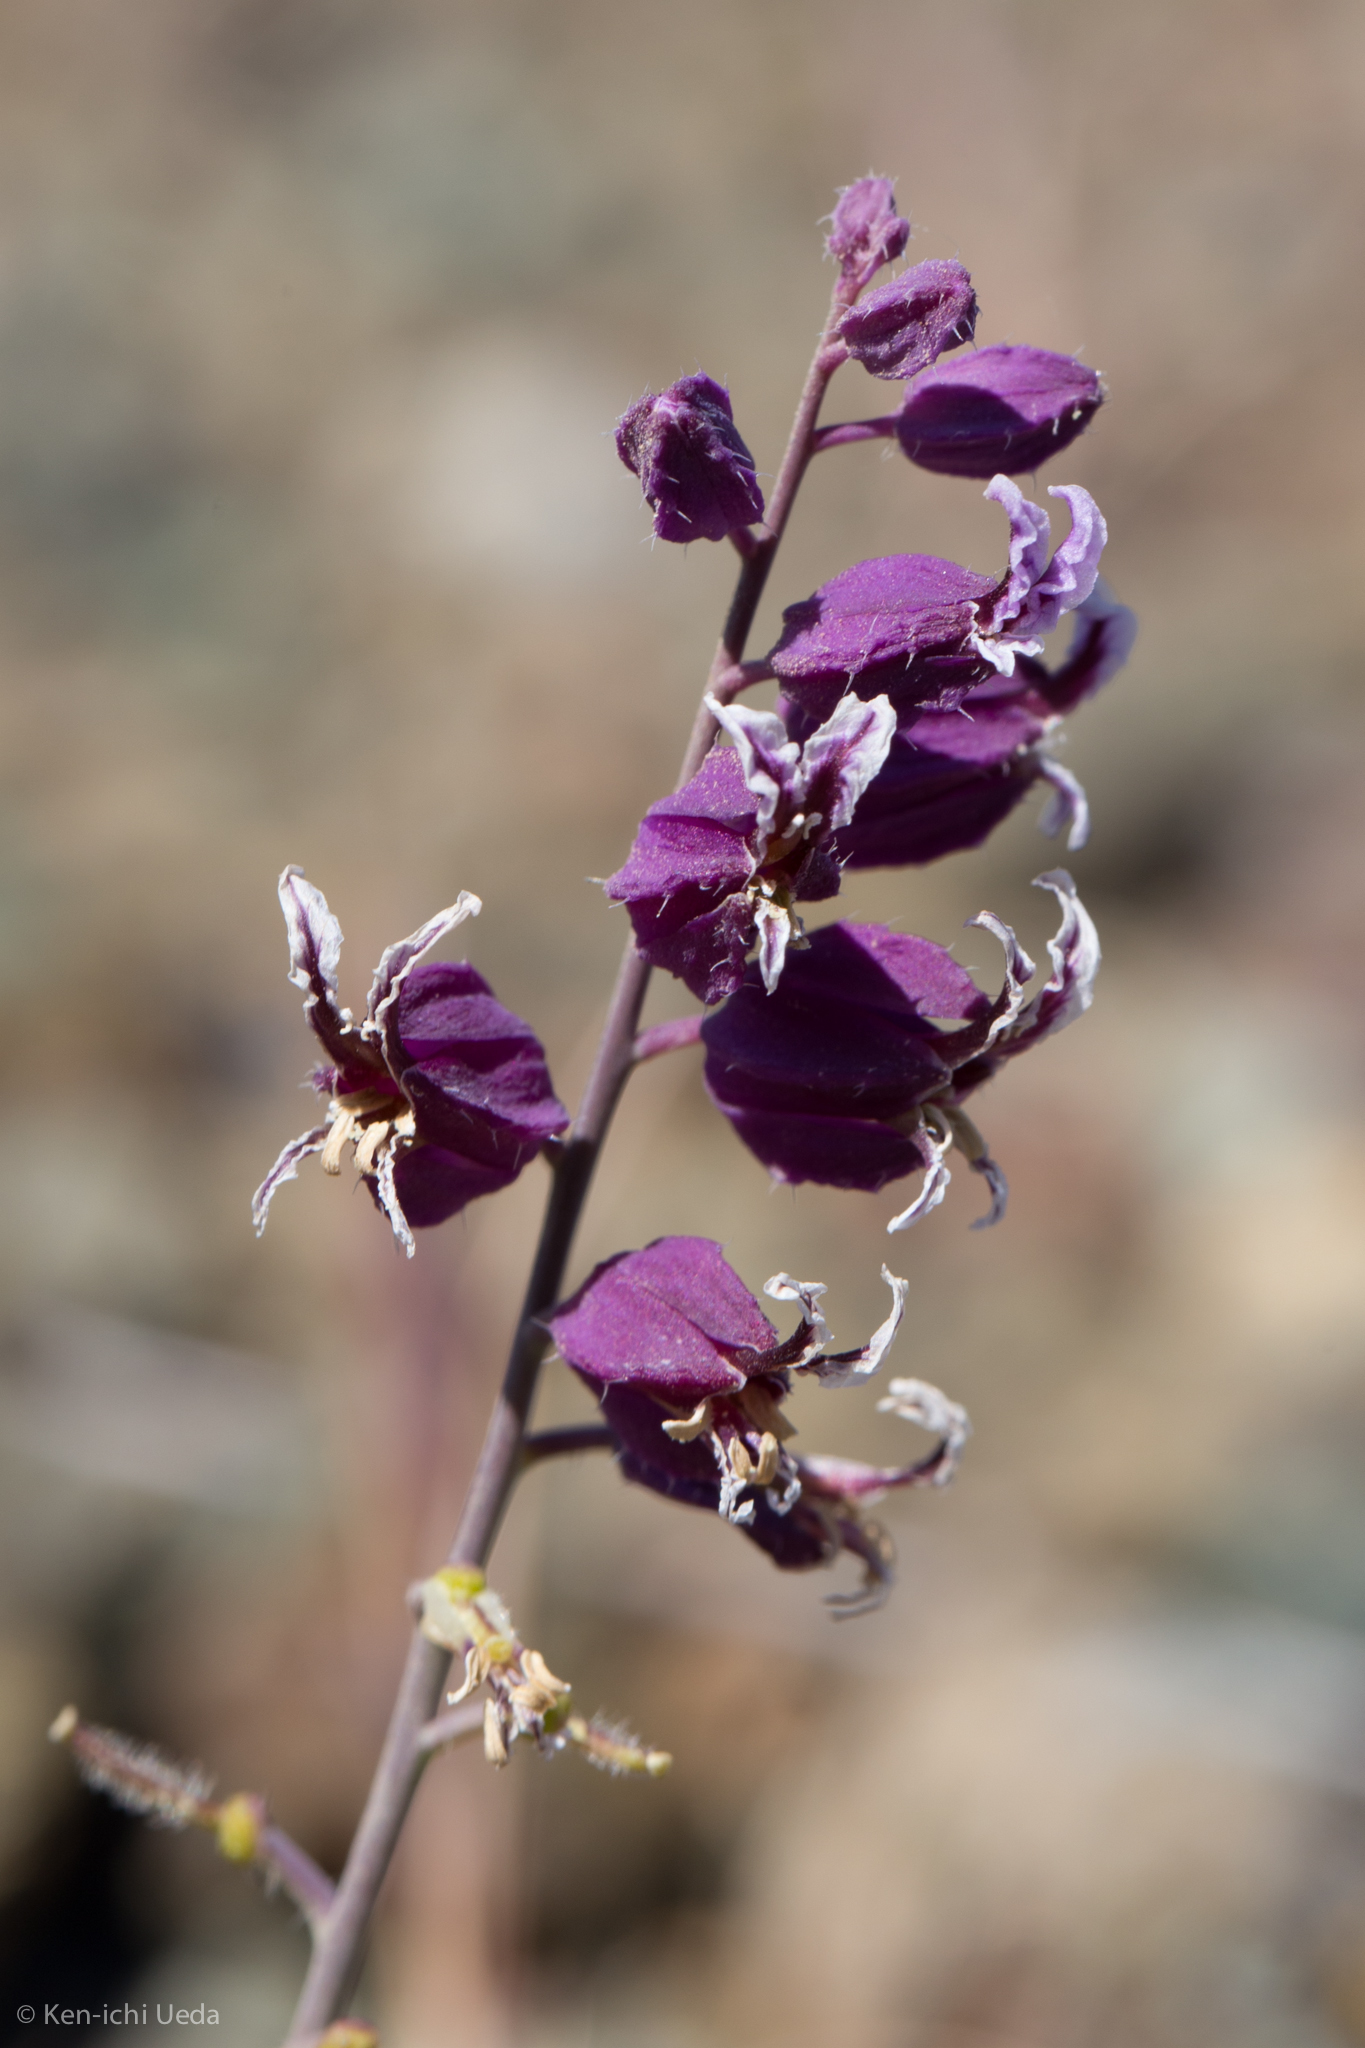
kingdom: Plantae
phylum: Tracheophyta
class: Magnoliopsida
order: Brassicales
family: Brassicaceae
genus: Streptanthus
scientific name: Streptanthus glandulosus
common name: Jewel-flower
